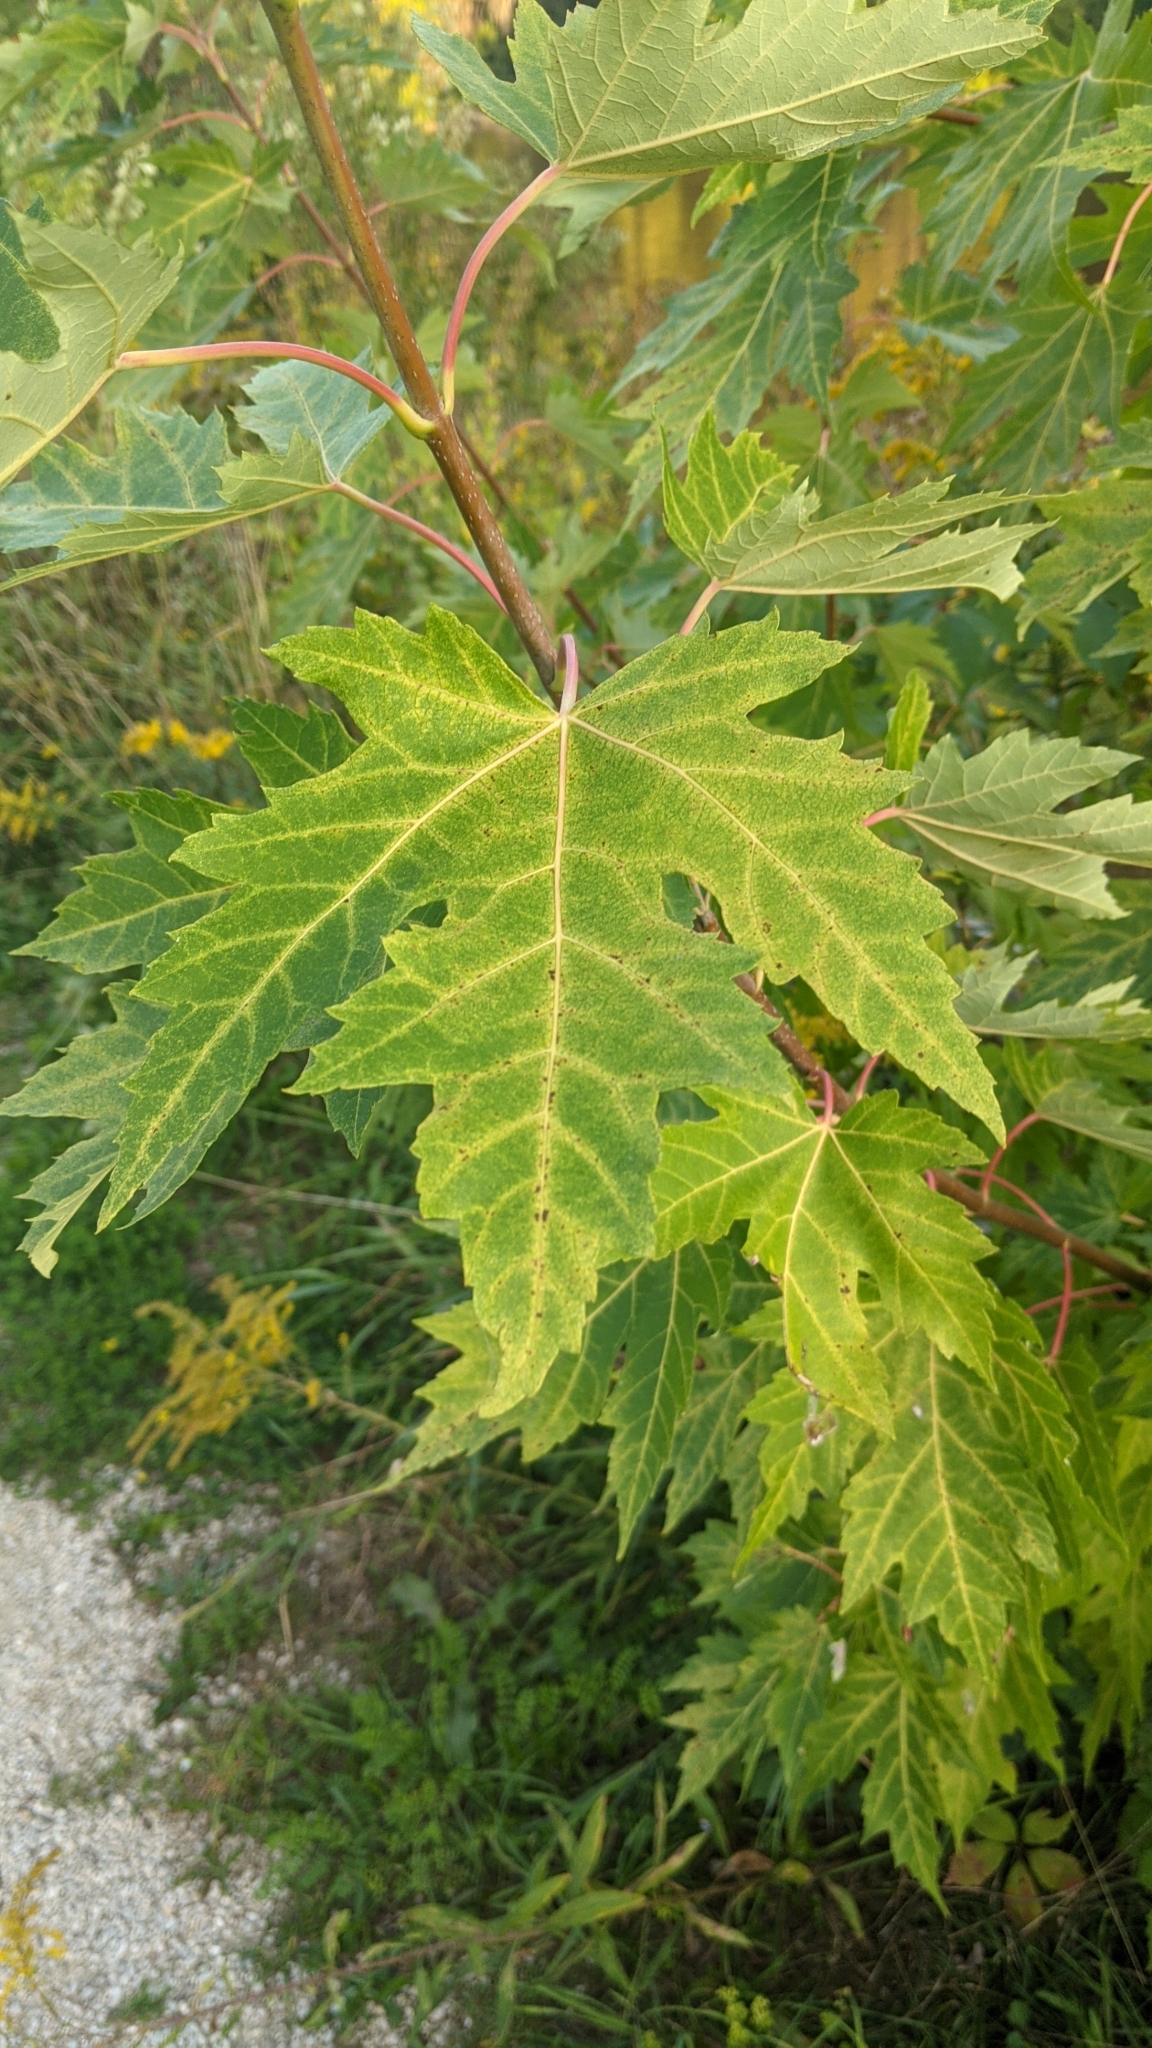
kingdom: Plantae
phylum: Tracheophyta
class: Magnoliopsida
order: Sapindales
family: Sapindaceae
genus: Acer
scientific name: Acer saccharinum
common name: Silver maple
